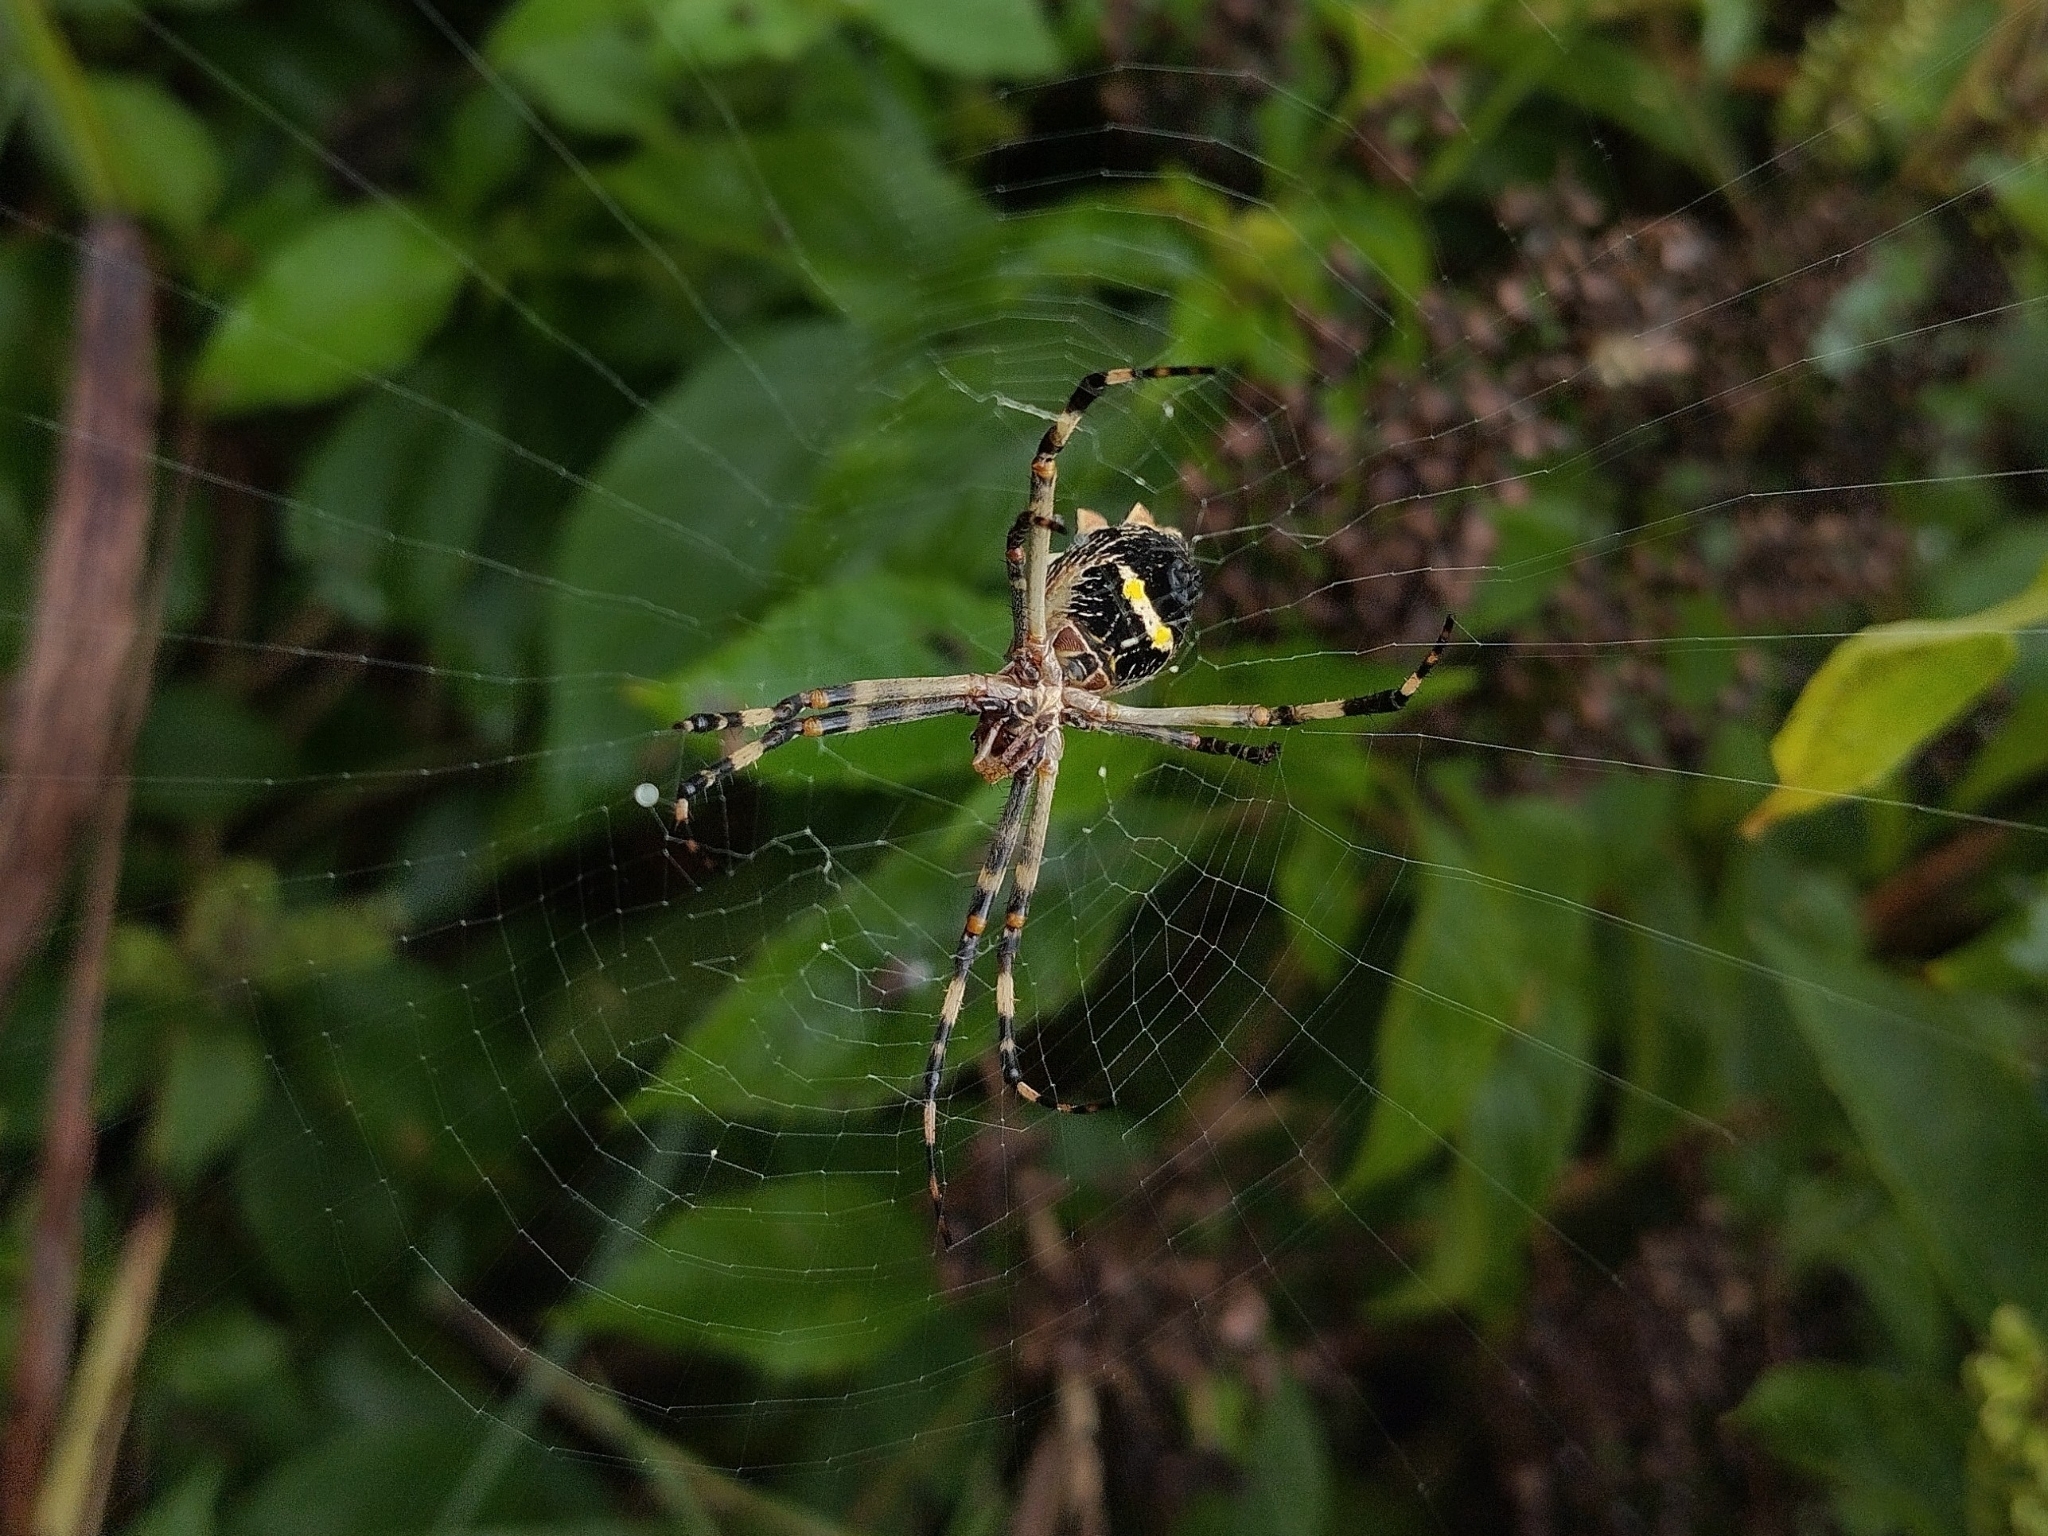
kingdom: Animalia
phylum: Arthropoda
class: Arachnida
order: Araneae
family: Araneidae
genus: Argiope
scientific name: Argiope argentata
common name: Orb weavers
